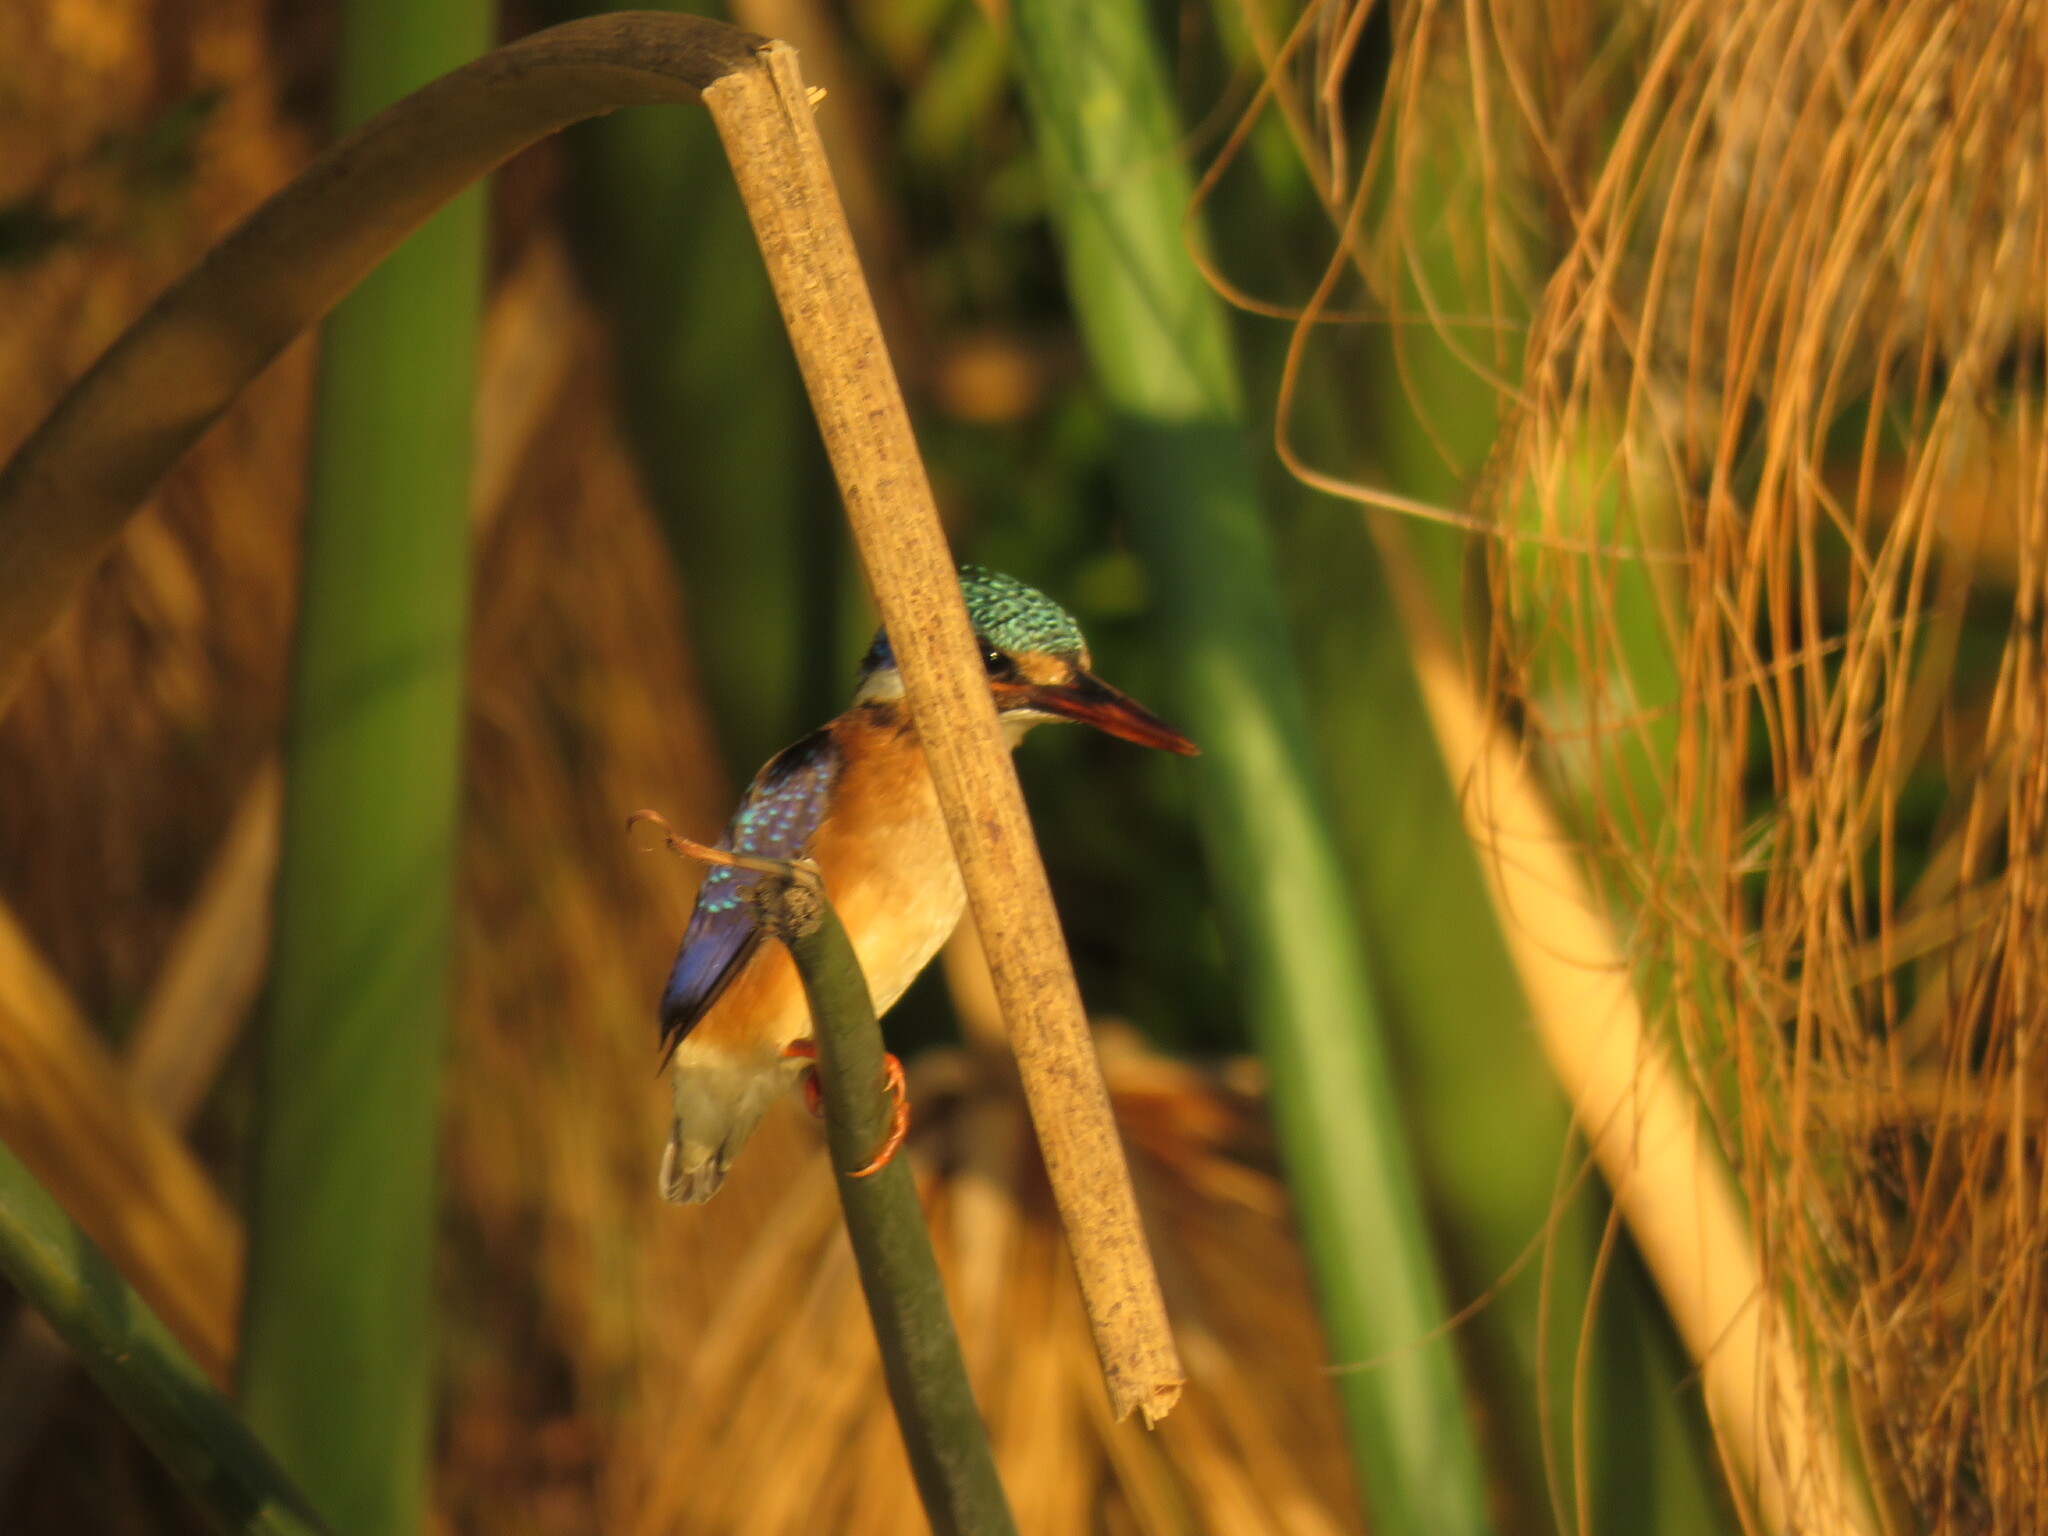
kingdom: Animalia
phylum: Chordata
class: Aves
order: Coraciiformes
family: Alcedinidae
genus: Corythornis
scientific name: Corythornis cristatus
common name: Malachite kingfisher
